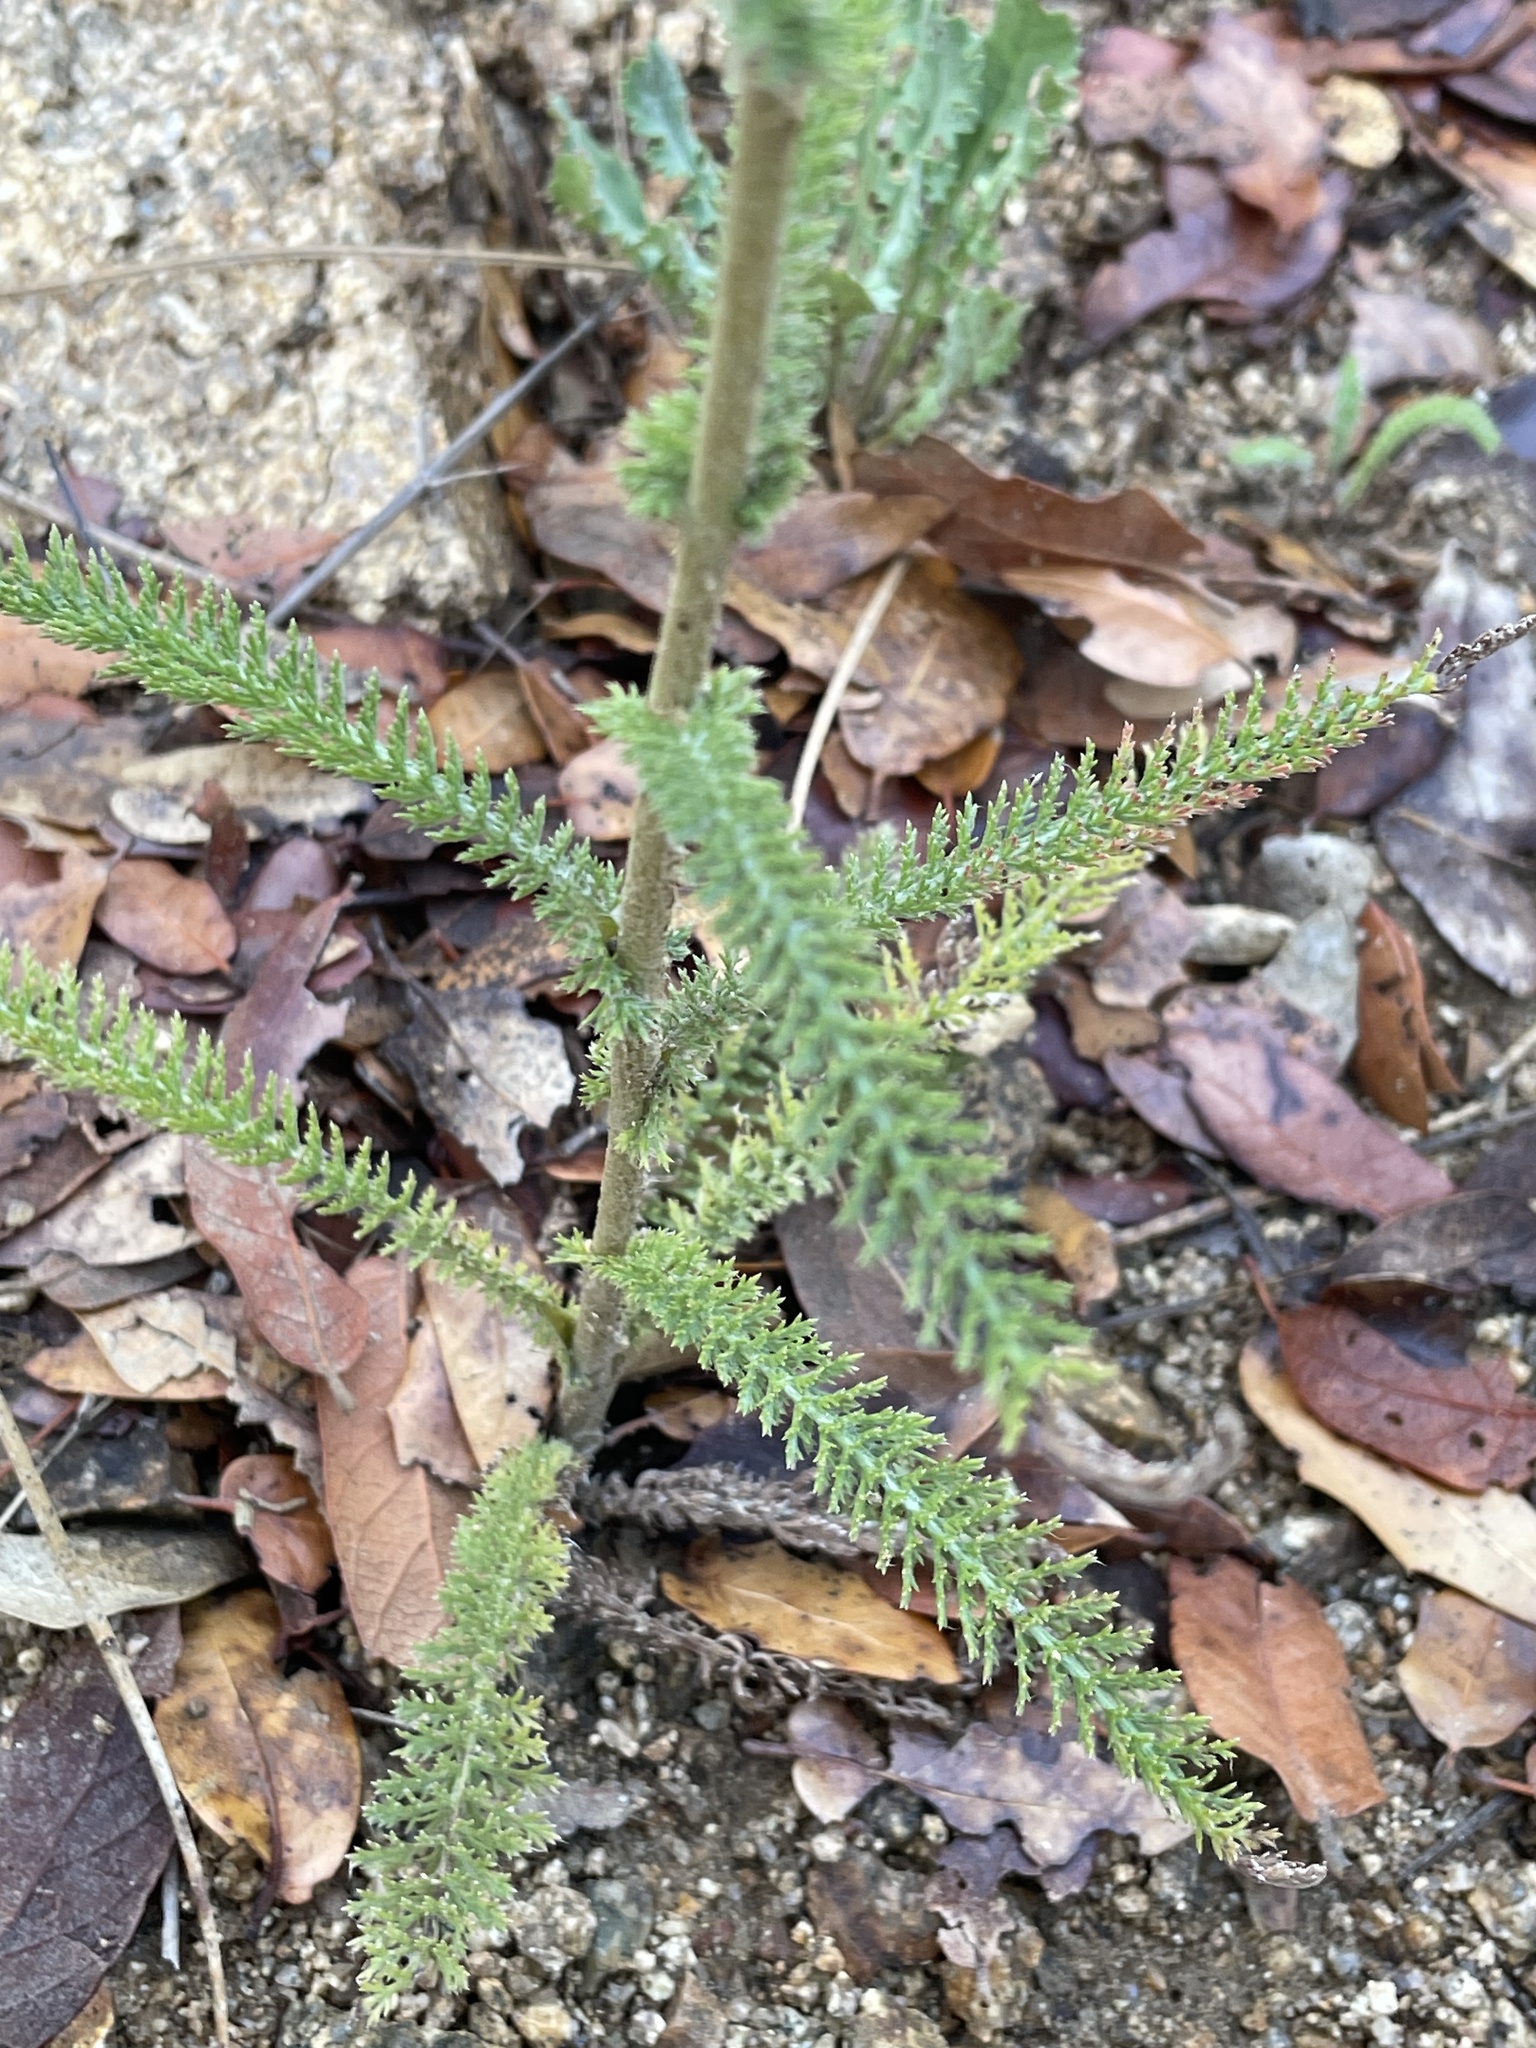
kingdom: Plantae
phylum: Tracheophyta
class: Magnoliopsida
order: Asterales
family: Asteraceae
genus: Achillea
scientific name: Achillea millefolium
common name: Yarrow
